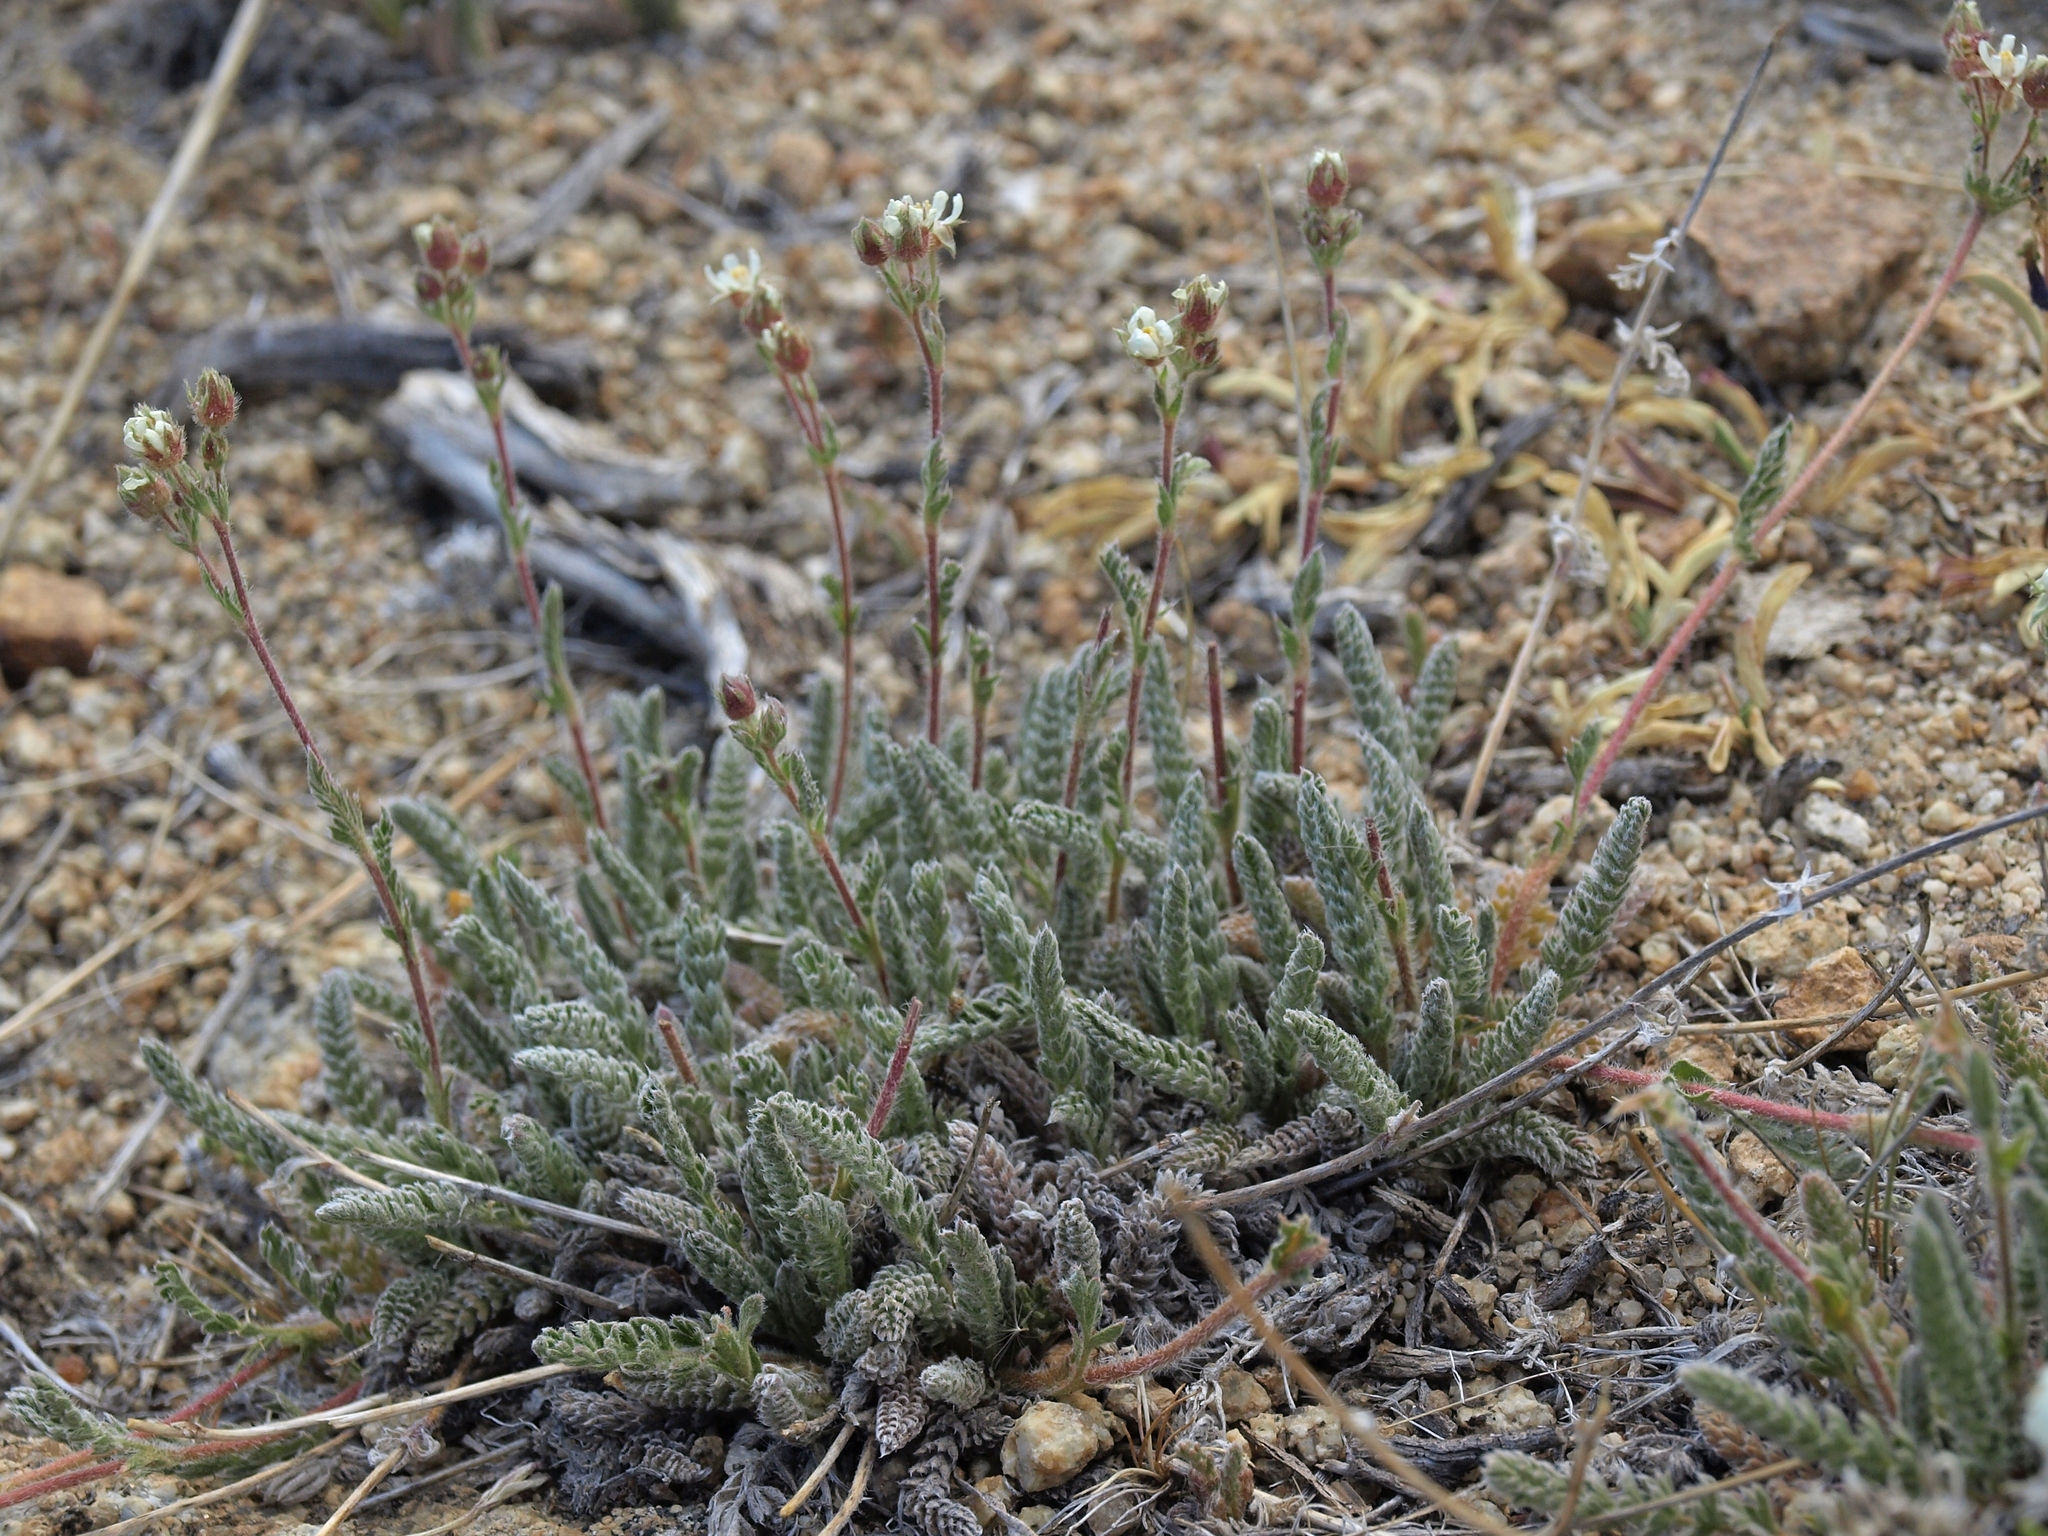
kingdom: Plantae
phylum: Tracheophyta
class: Magnoliopsida
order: Rosales
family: Rosaceae
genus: Potentilla
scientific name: Potentilla hispidula
